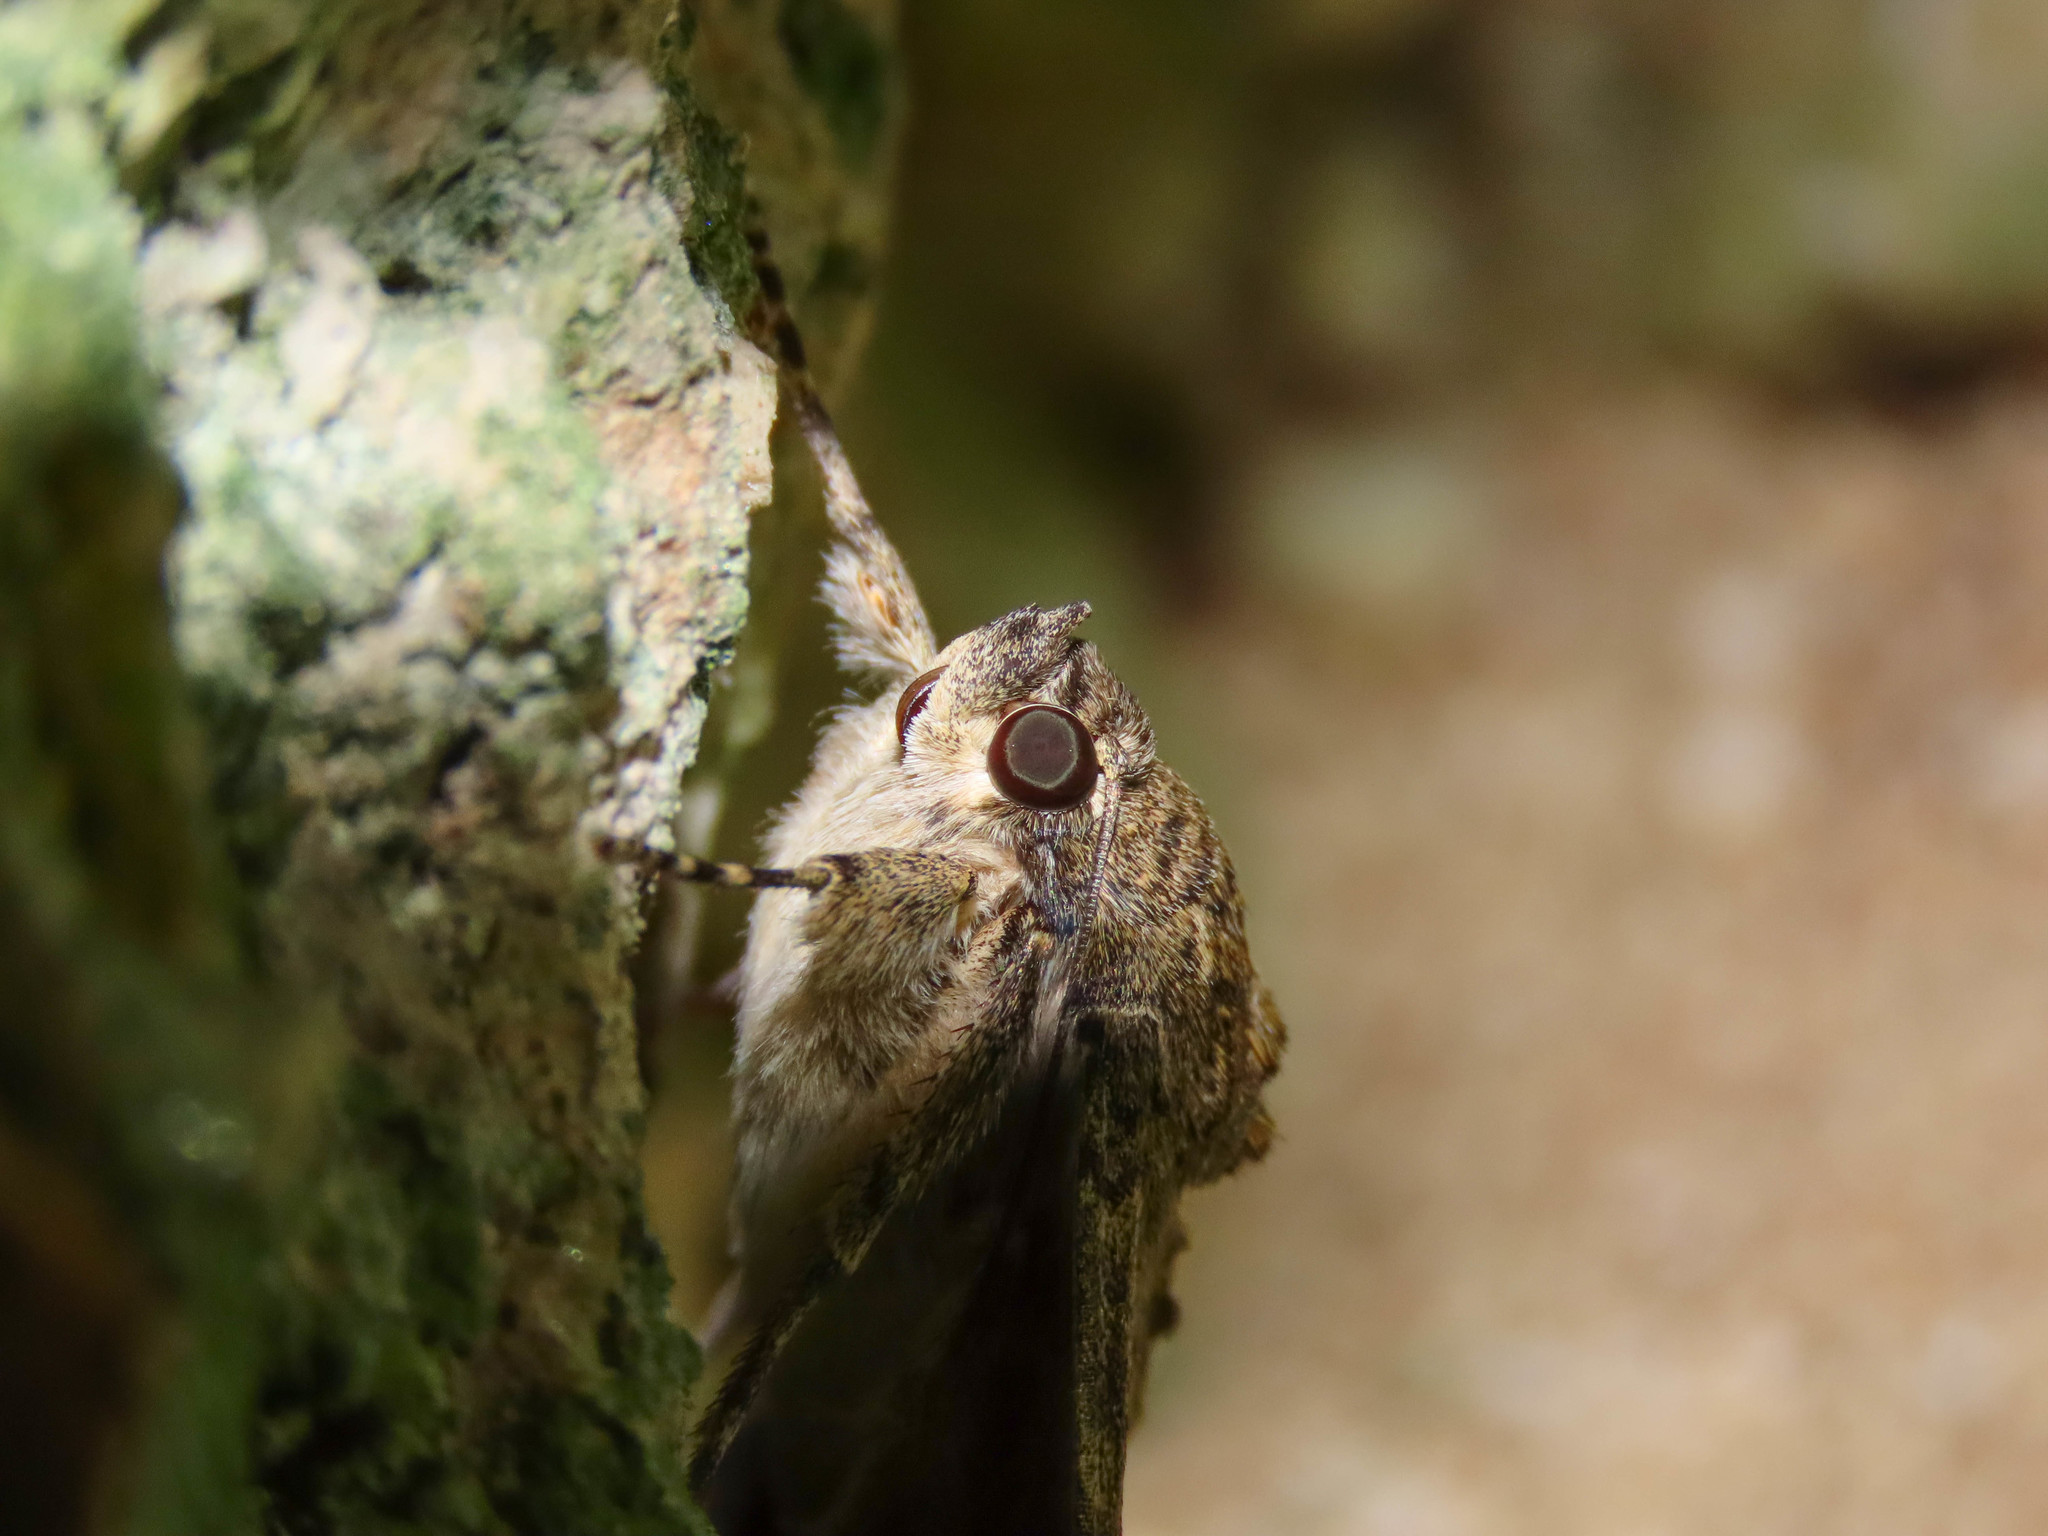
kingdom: Animalia
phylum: Arthropoda
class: Insecta
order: Lepidoptera
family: Erebidae
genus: Catocala
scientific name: Catocala nupta
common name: Red underwing
